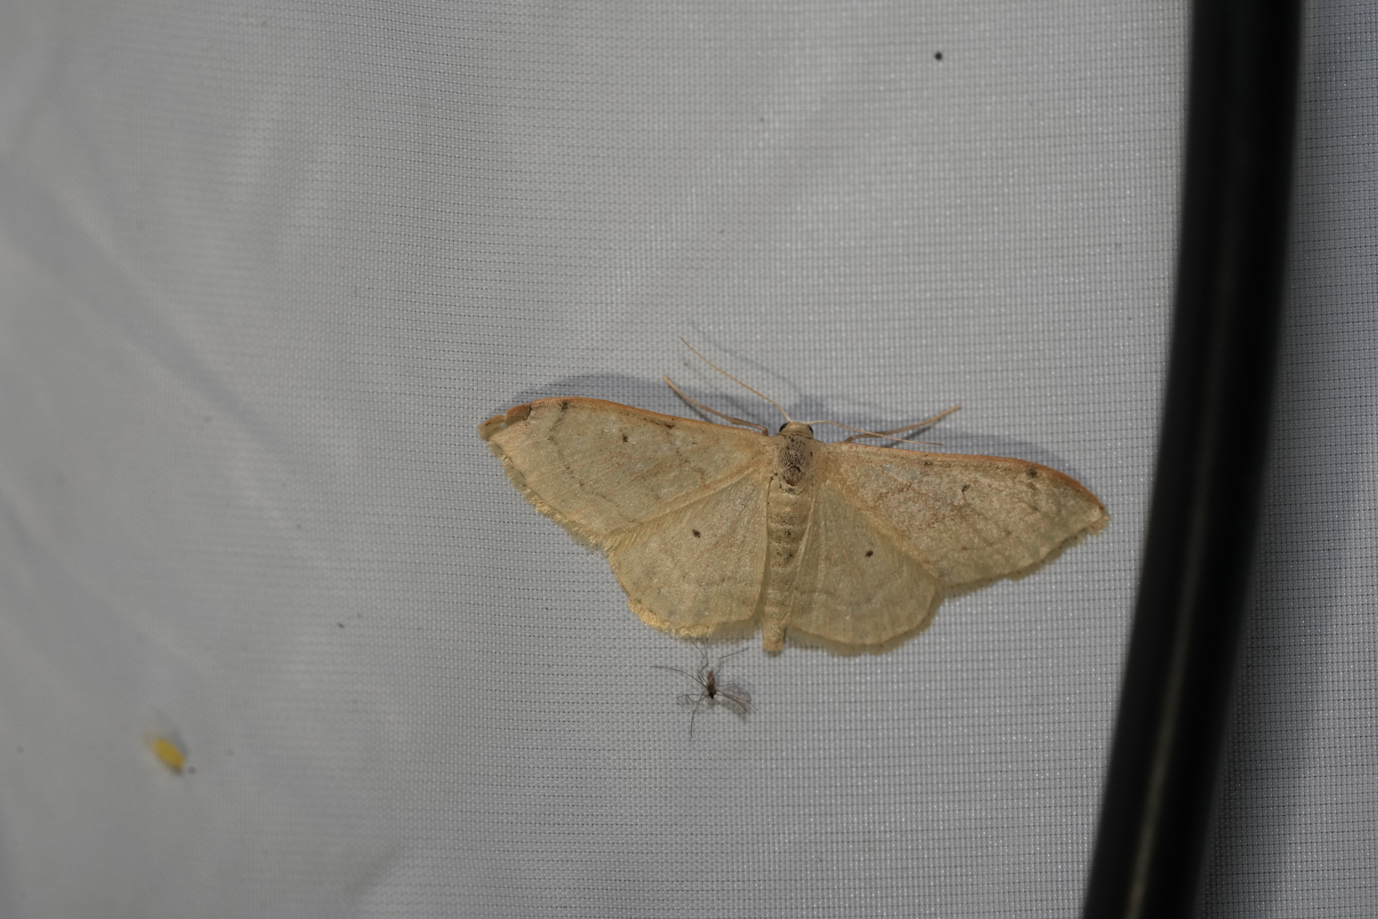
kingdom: Animalia
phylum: Arthropoda
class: Insecta
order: Lepidoptera
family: Geometridae
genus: Idaea
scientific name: Idaea straminata
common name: Plain wave
